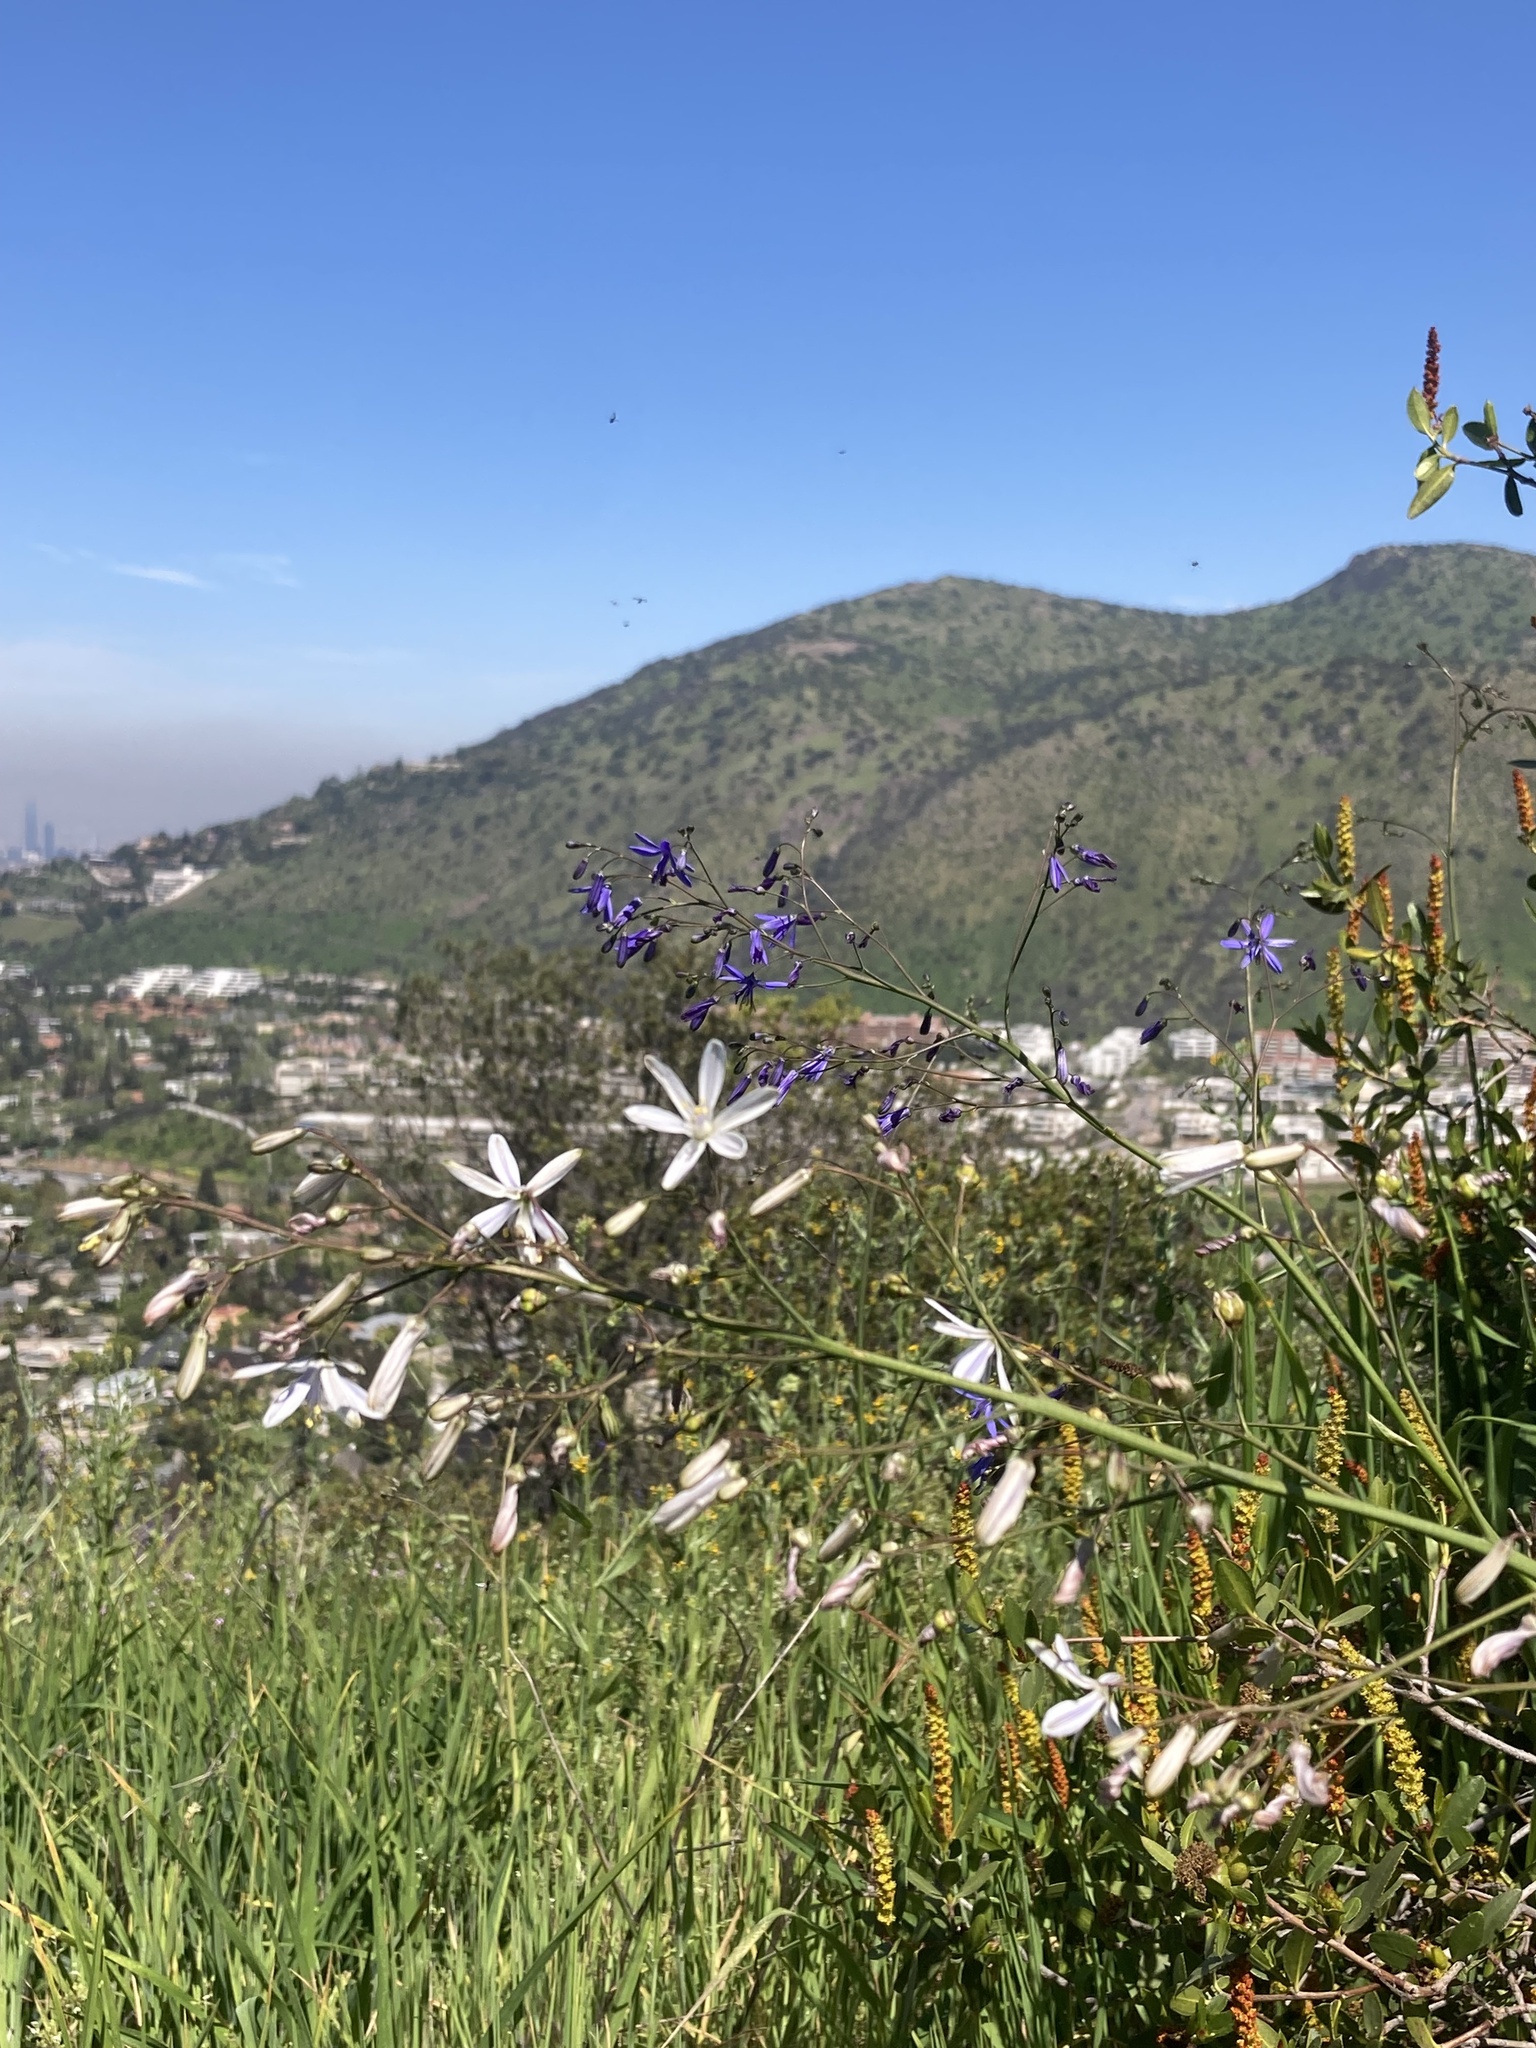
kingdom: Plantae
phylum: Tracheophyta
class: Liliopsida
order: Asparagales
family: Asphodelaceae
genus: Pasithea
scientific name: Pasithea caerulea
